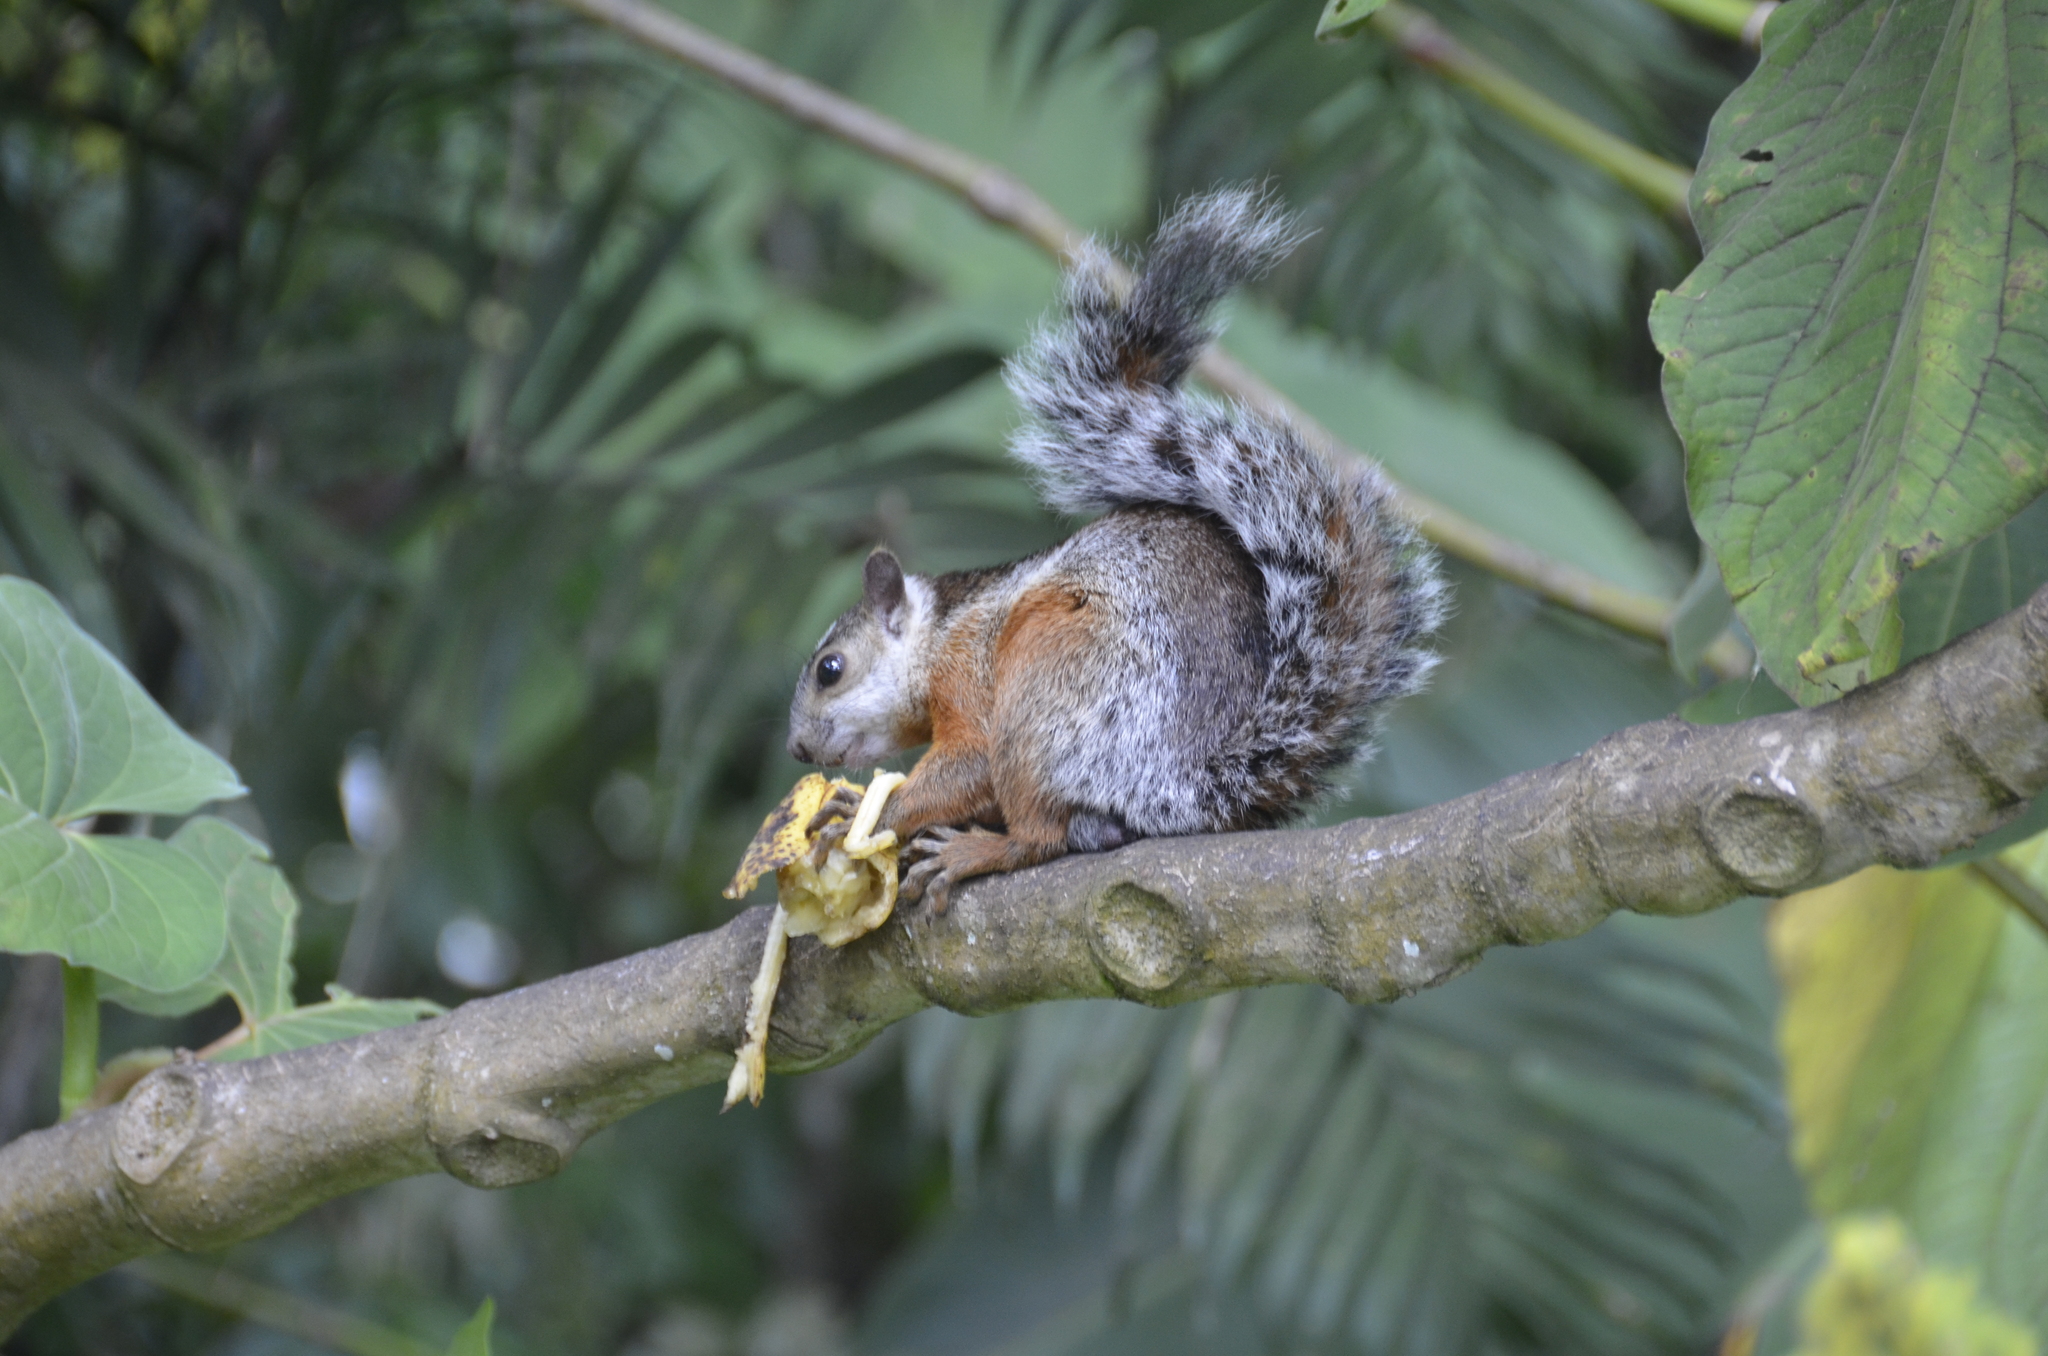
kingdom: Animalia
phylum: Chordata
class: Mammalia
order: Rodentia
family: Sciuridae
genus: Sciurus
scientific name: Sciurus variegatoides
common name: Variegated squirrel
